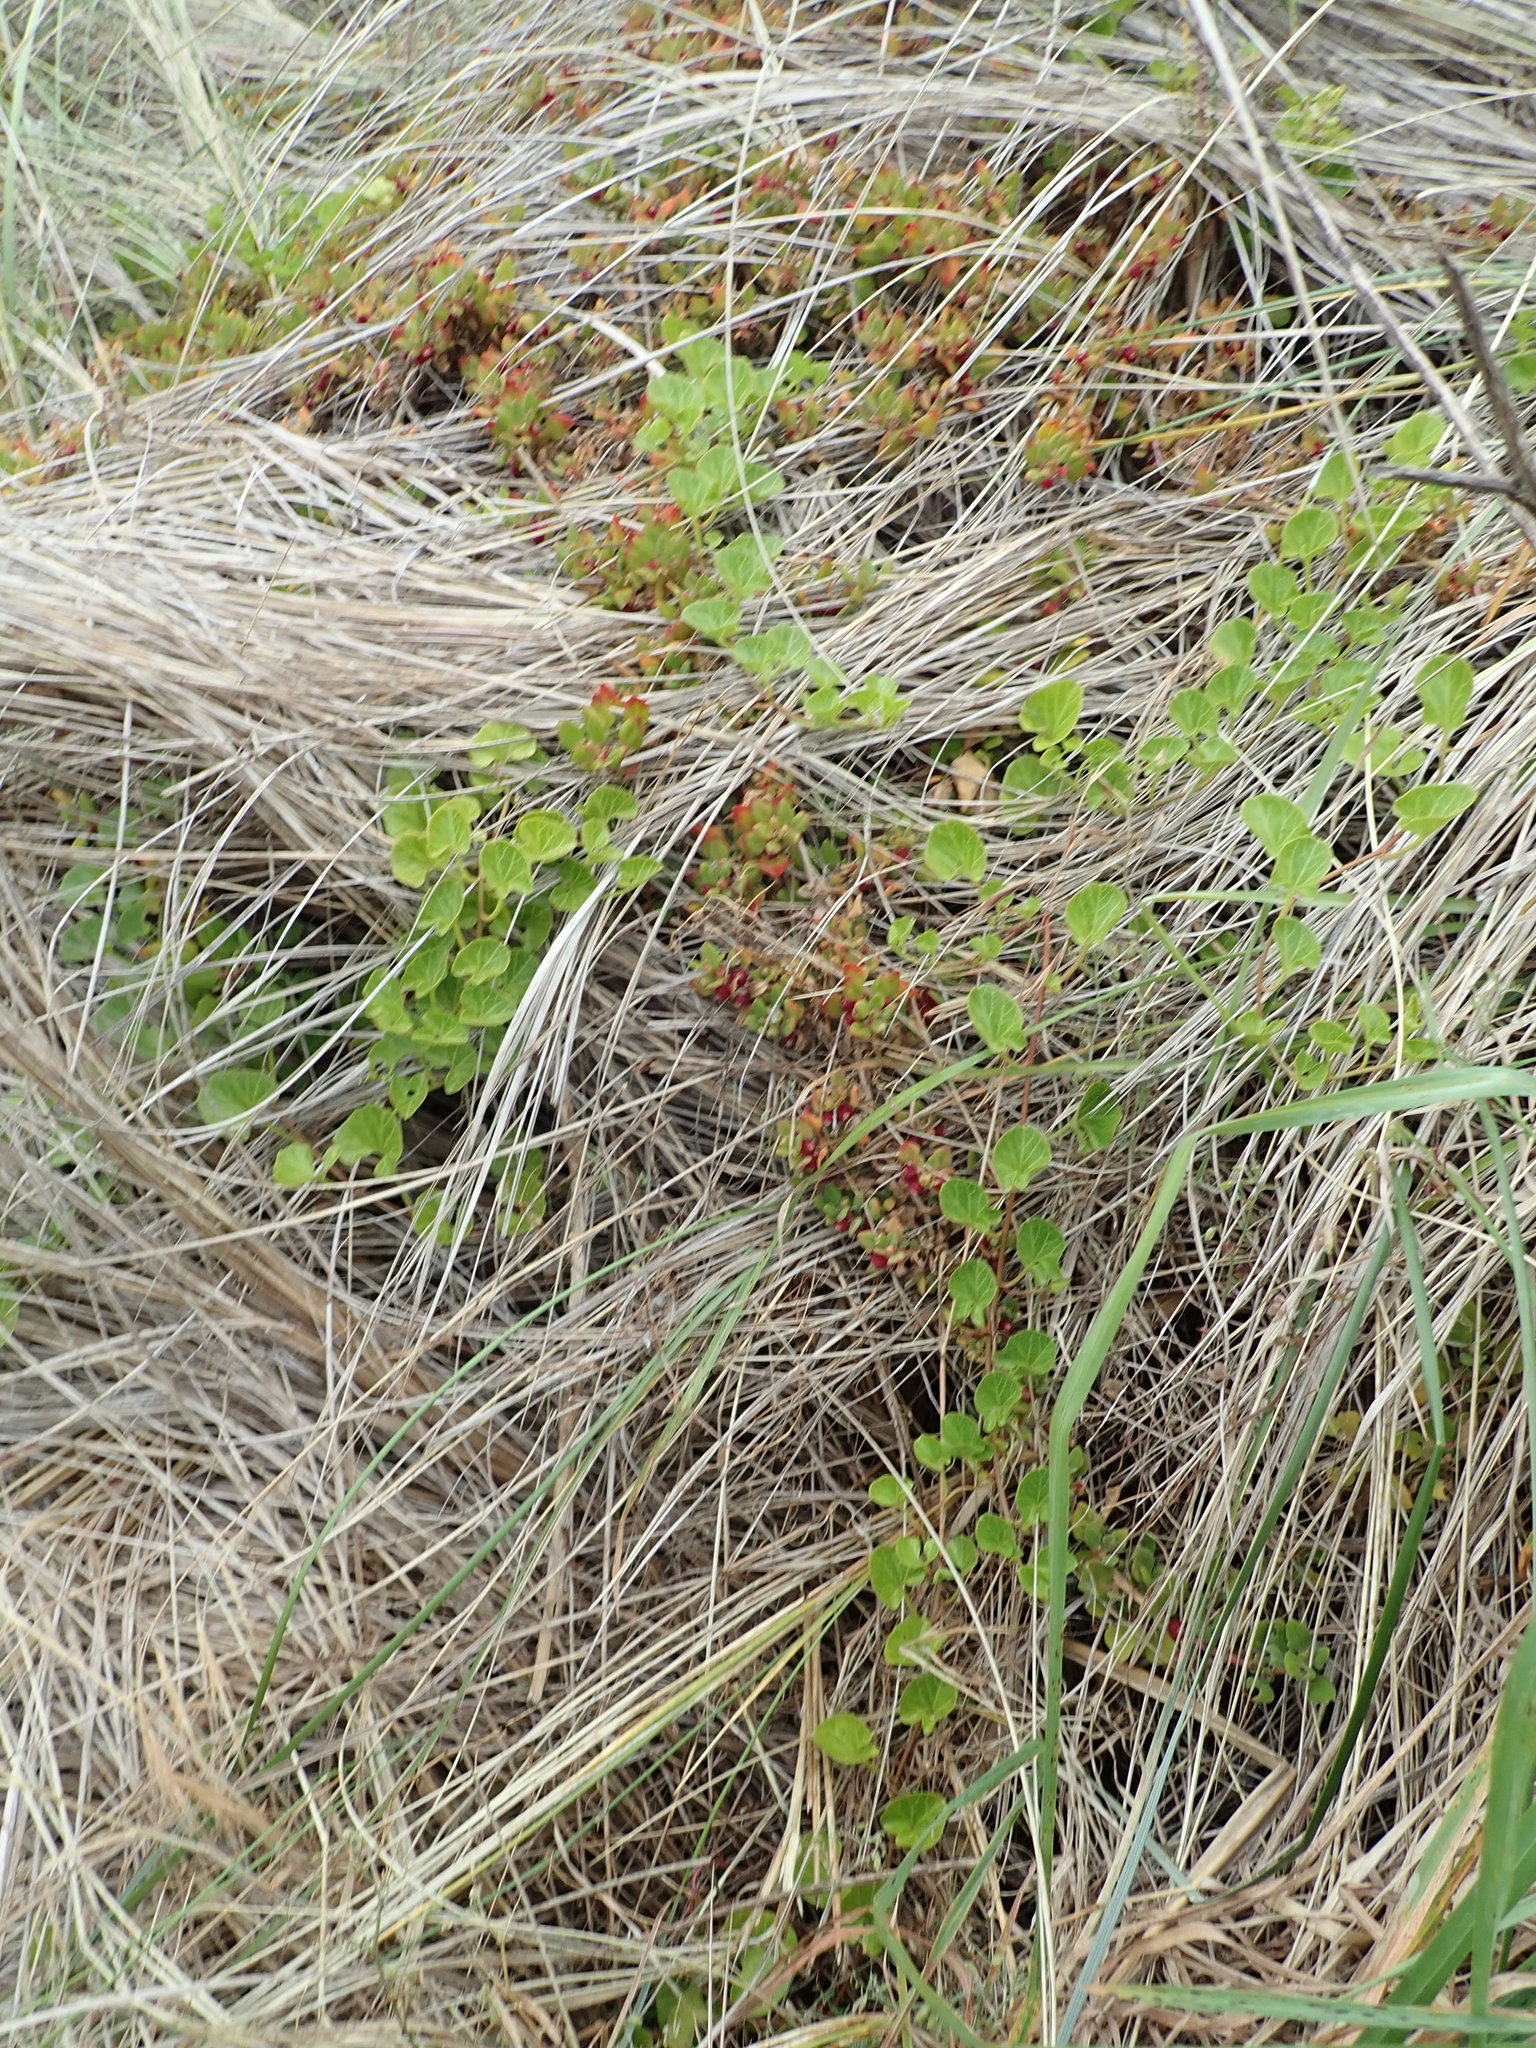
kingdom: Plantae
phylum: Tracheophyta
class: Magnoliopsida
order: Caryophyllales
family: Aizoaceae
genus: Tetragonia
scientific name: Tetragonia implexicoma
